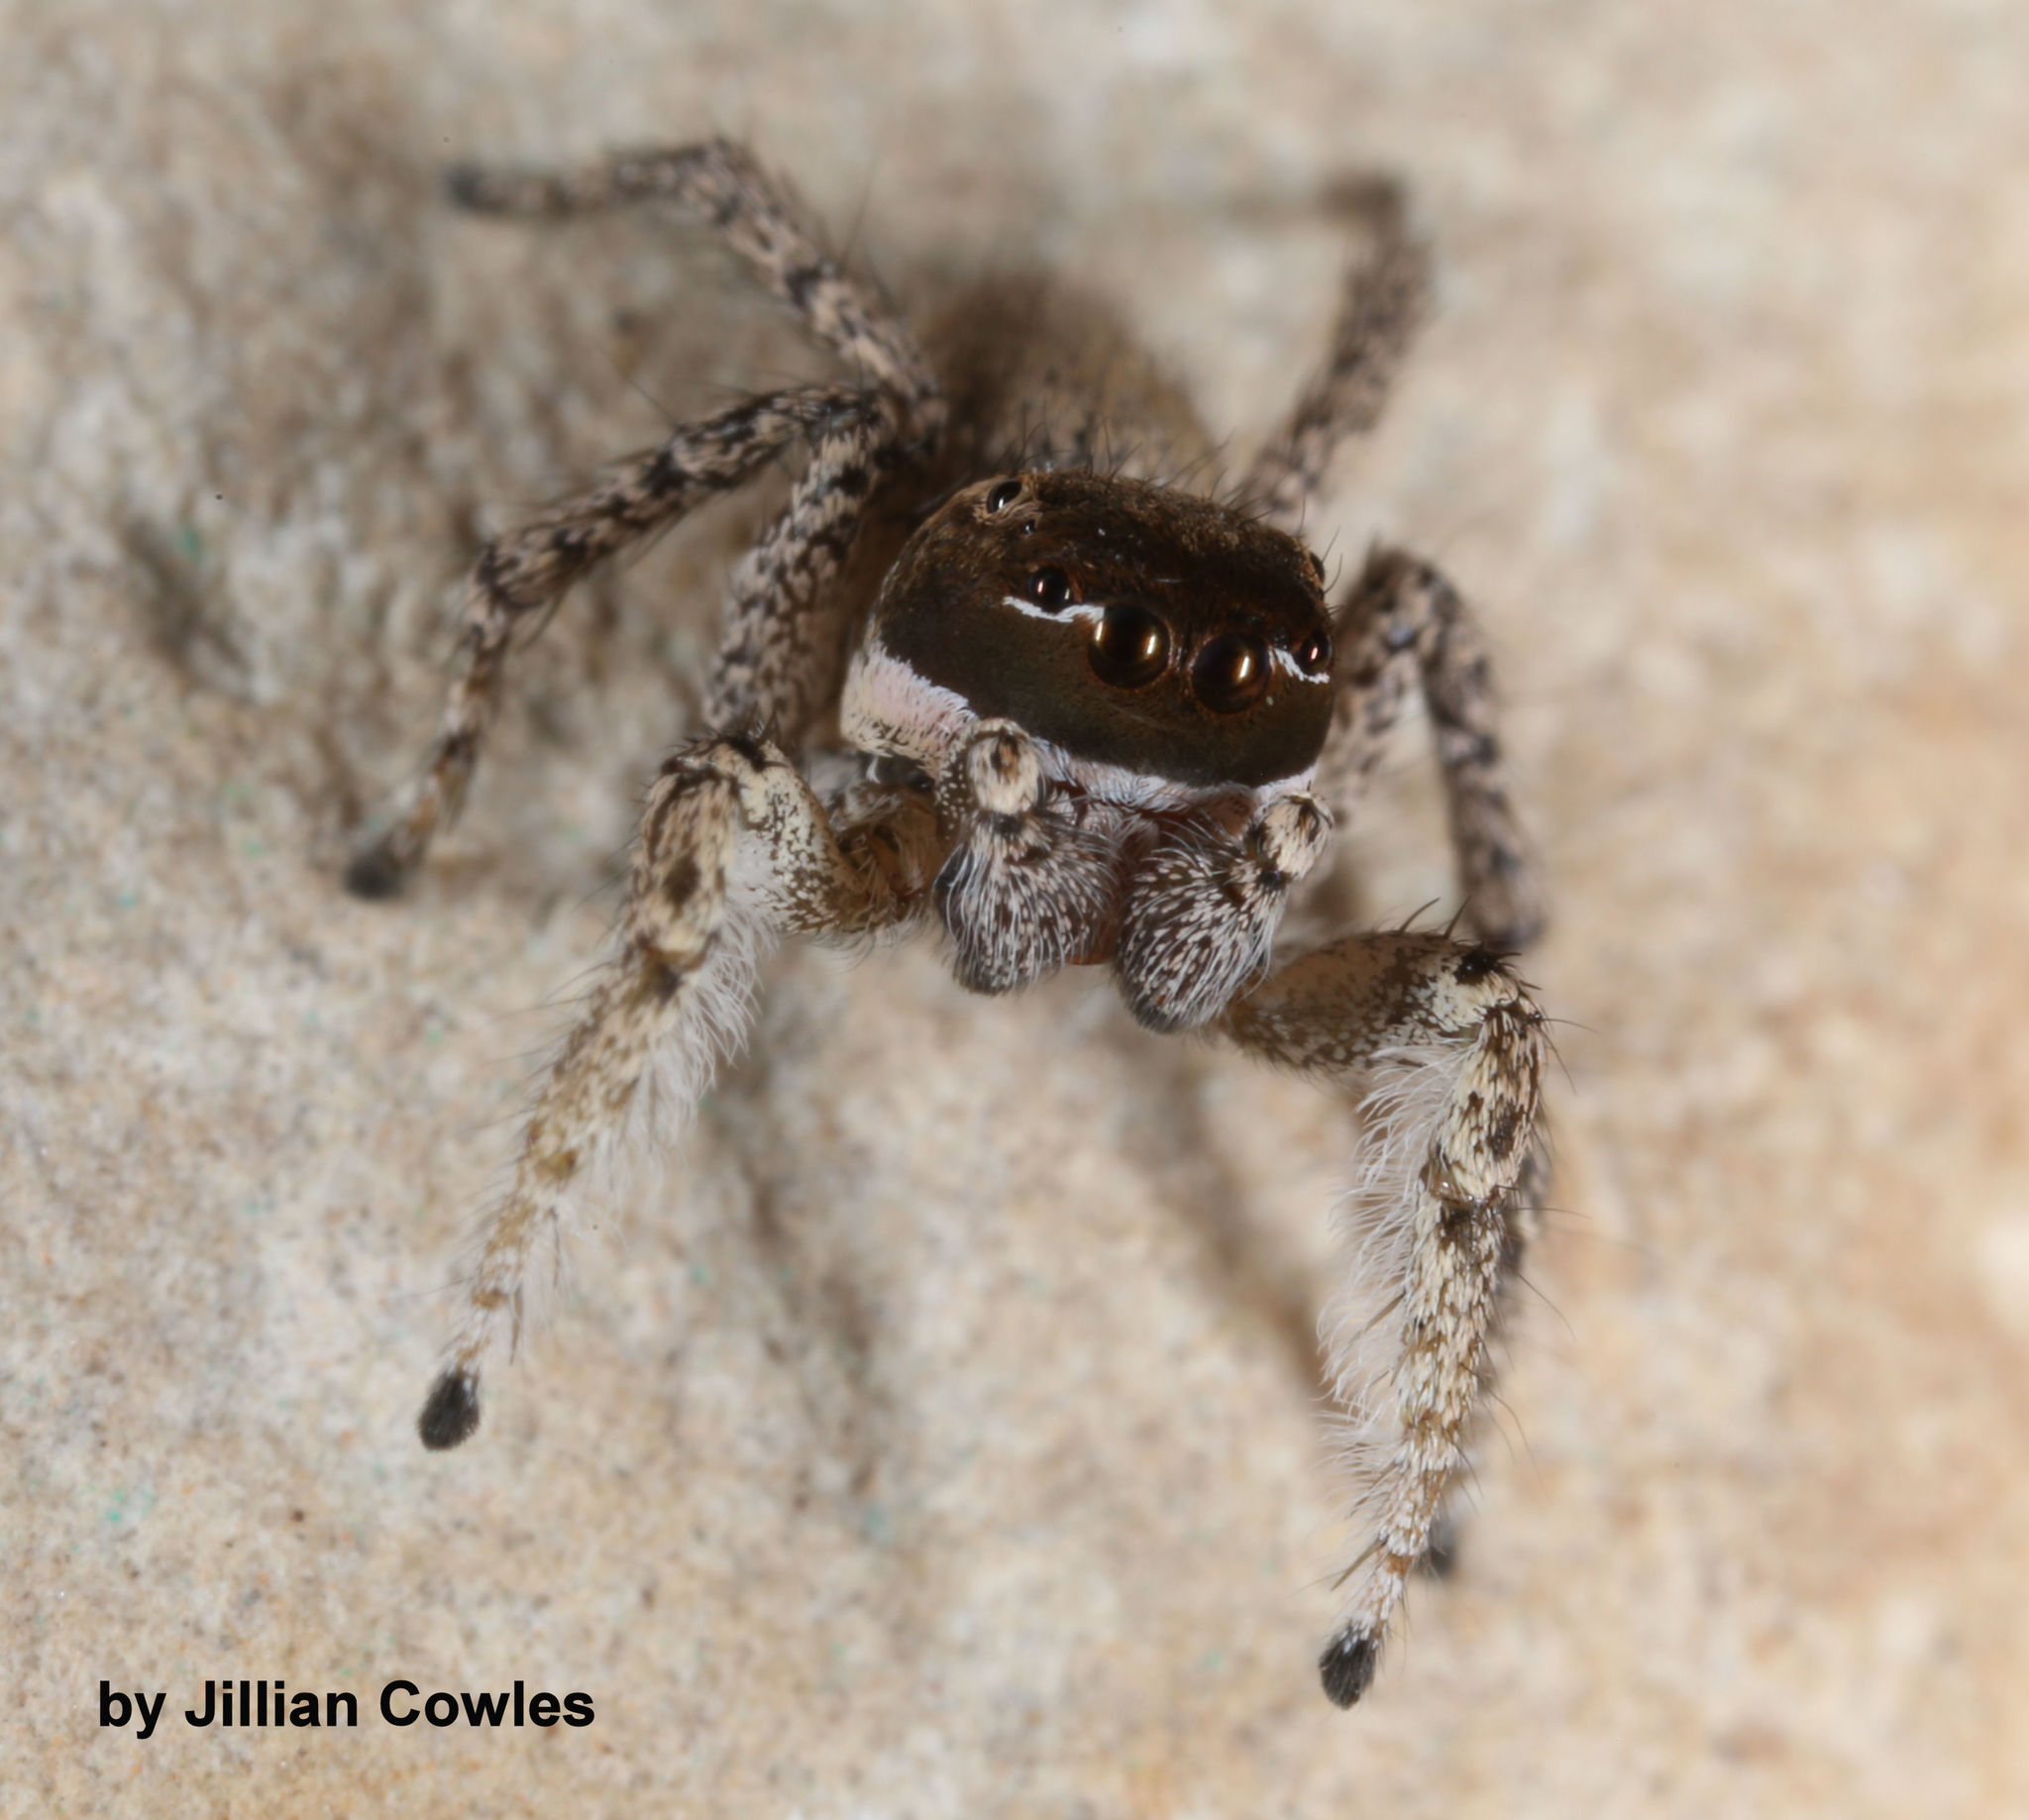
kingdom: Animalia
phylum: Arthropoda
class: Arachnida
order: Araneae
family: Salticidae
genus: Habronattus
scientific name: Habronattus pugillis
